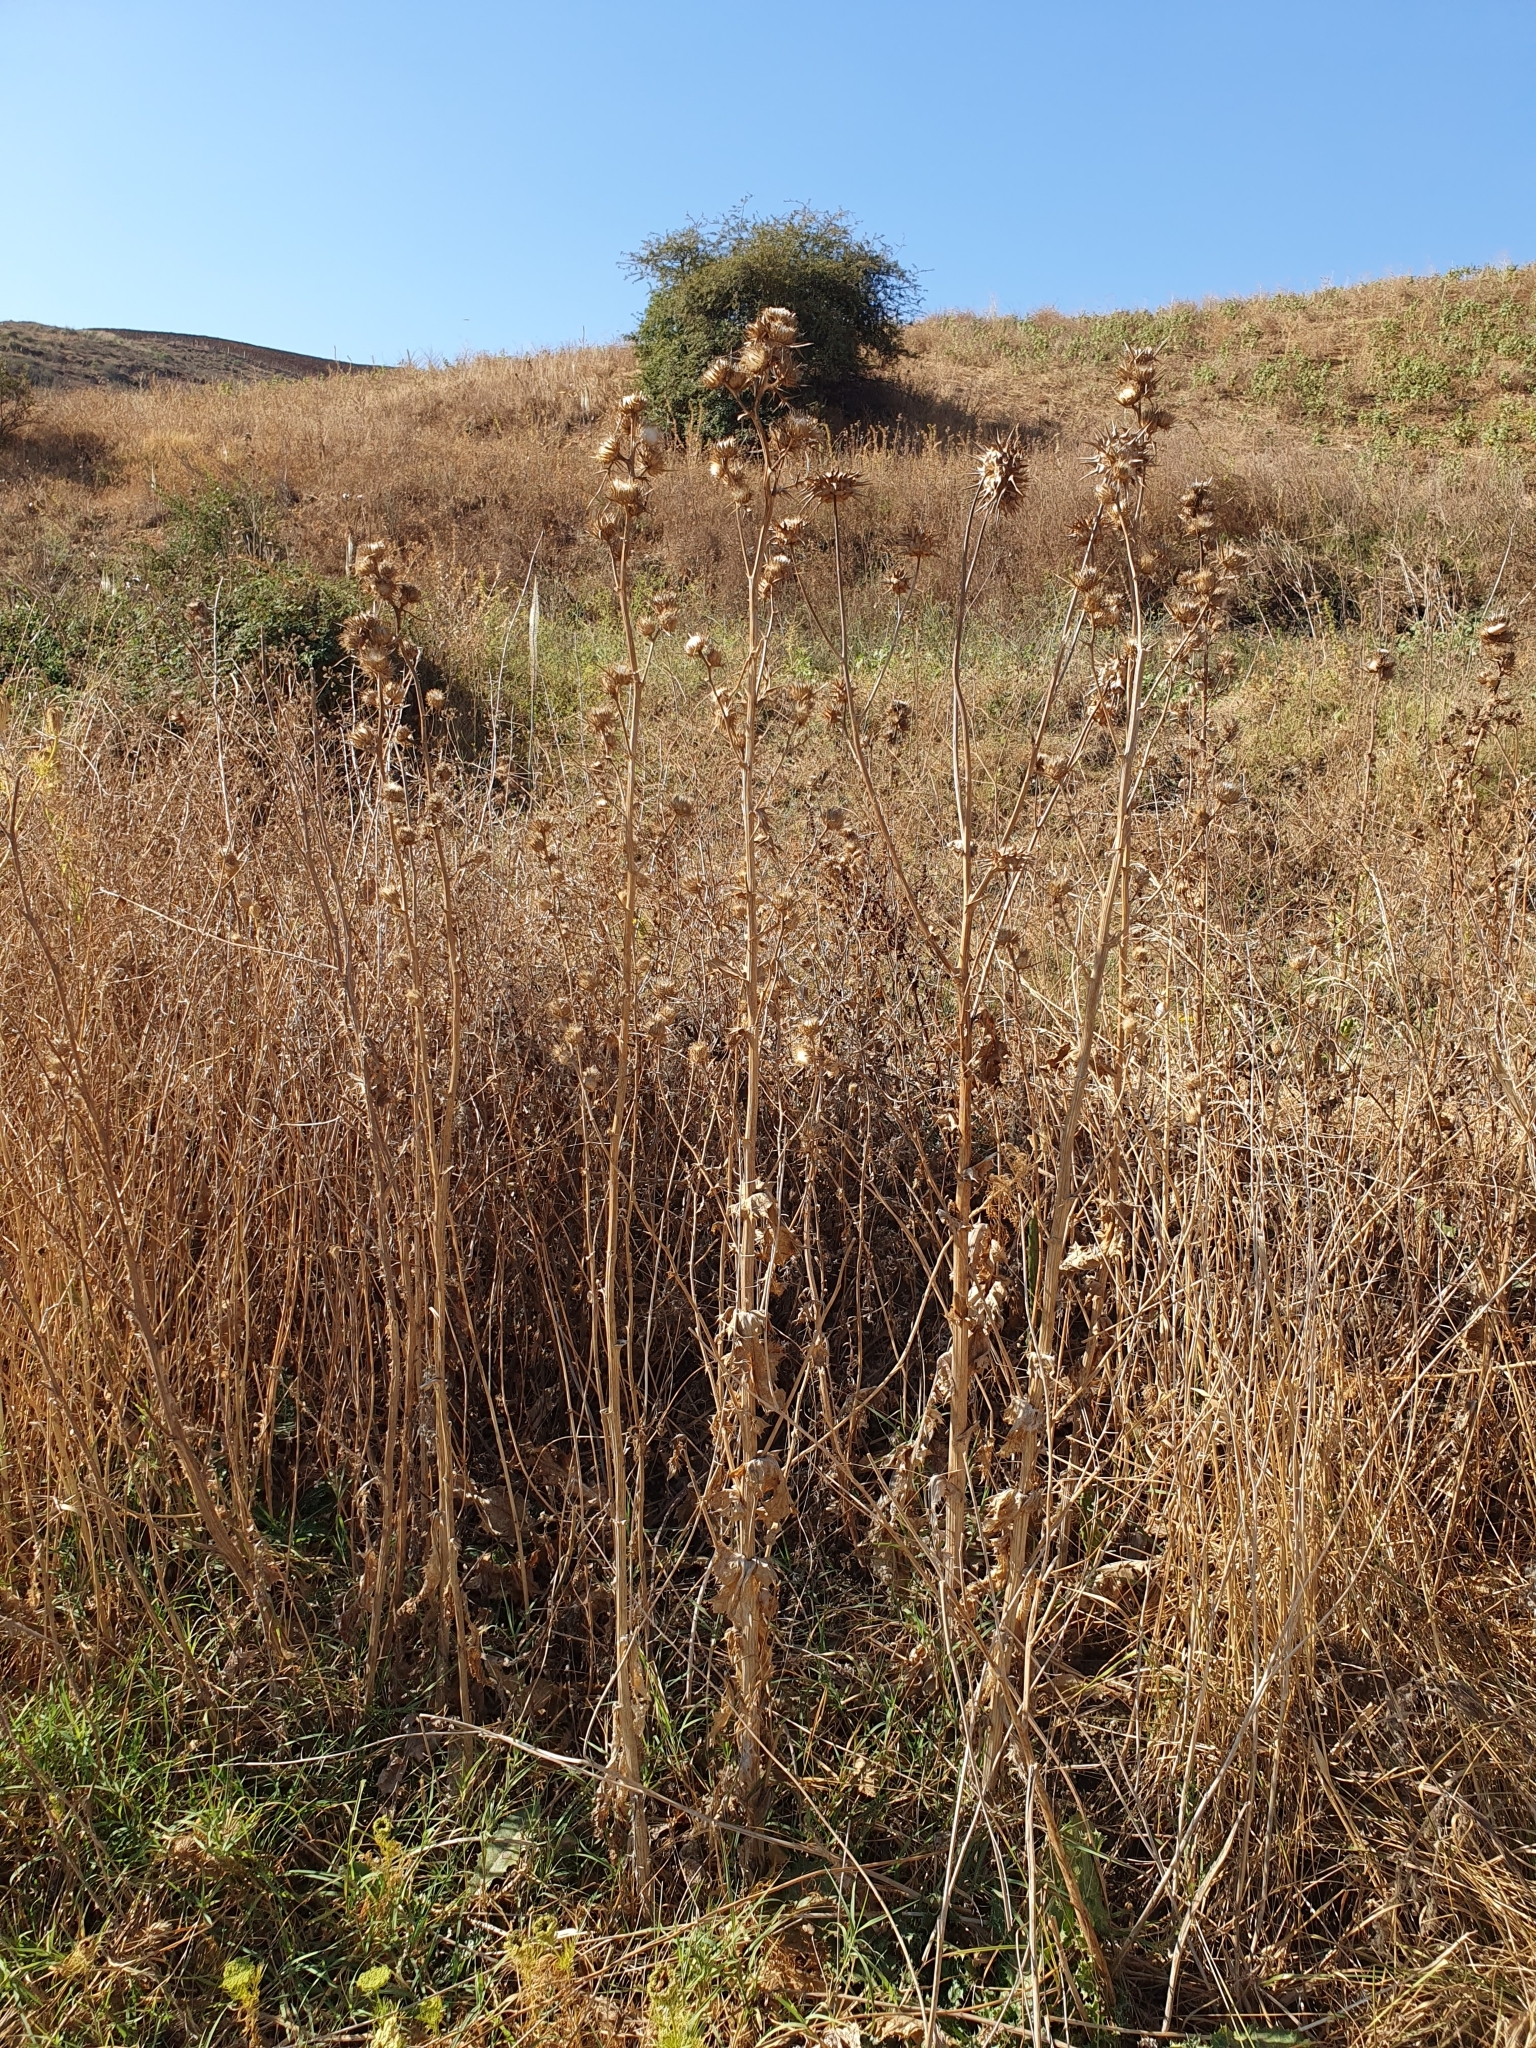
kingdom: Plantae
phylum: Tracheophyta
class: Magnoliopsida
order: Asterales
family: Asteraceae
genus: Notobasis
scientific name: Notobasis syriaca
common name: Syrian thistle
